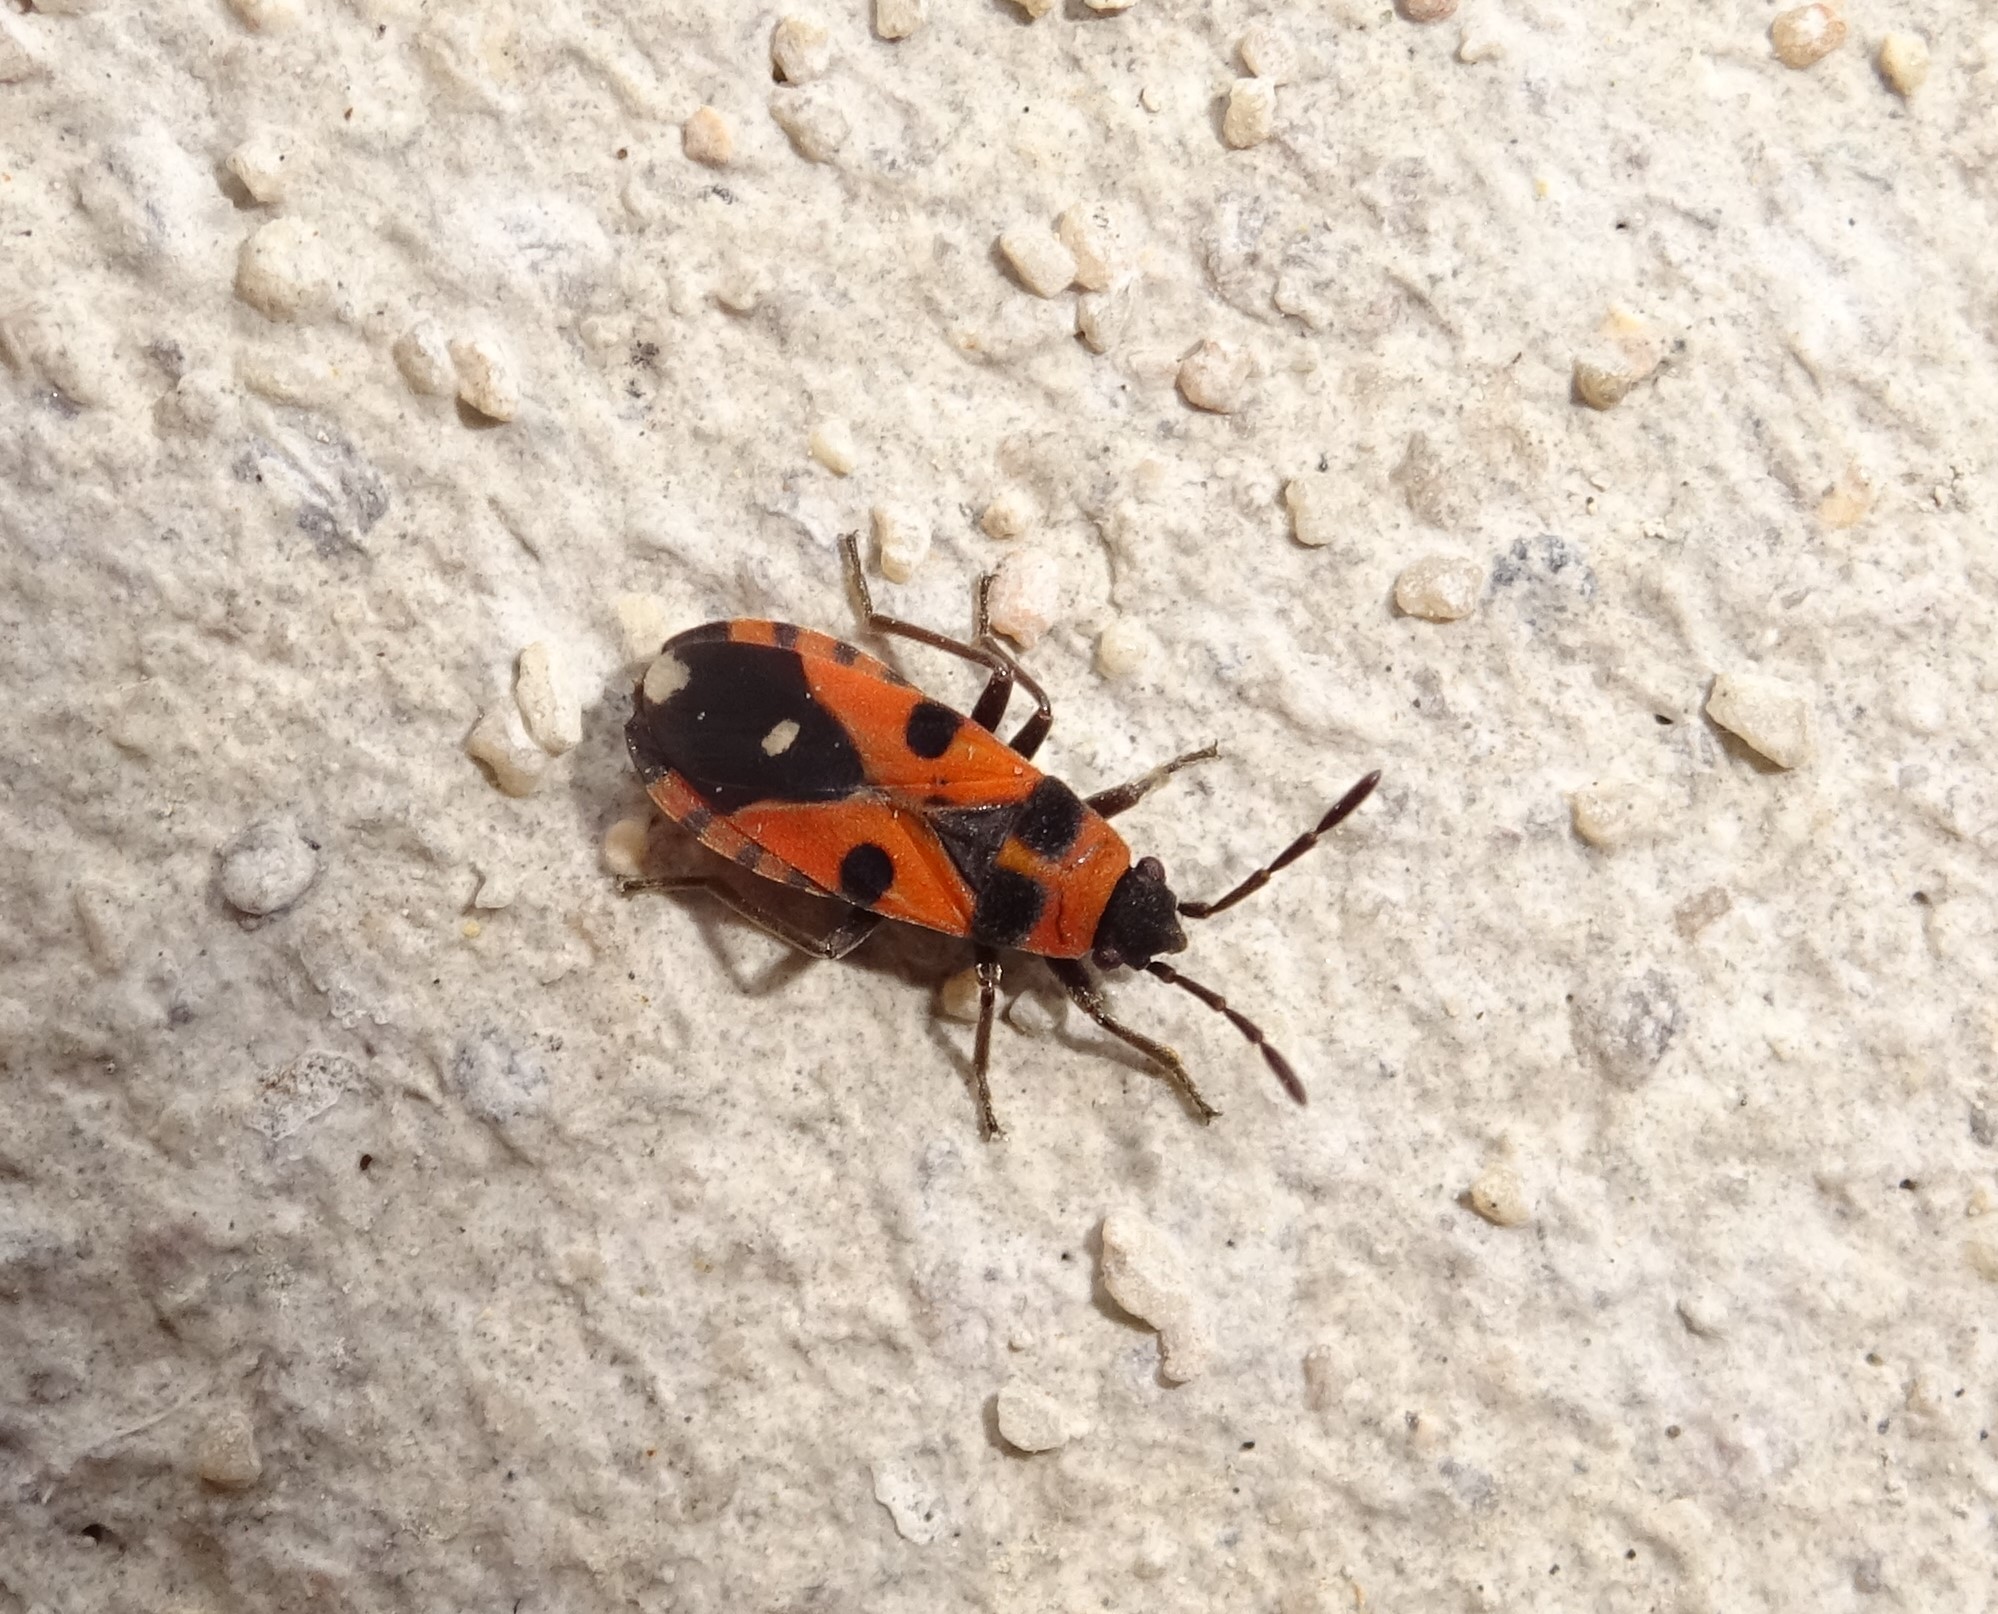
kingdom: Animalia
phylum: Arthropoda
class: Insecta
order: Hemiptera
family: Lygaeidae
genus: Horvathiolus
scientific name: Horvathiolus superbus
